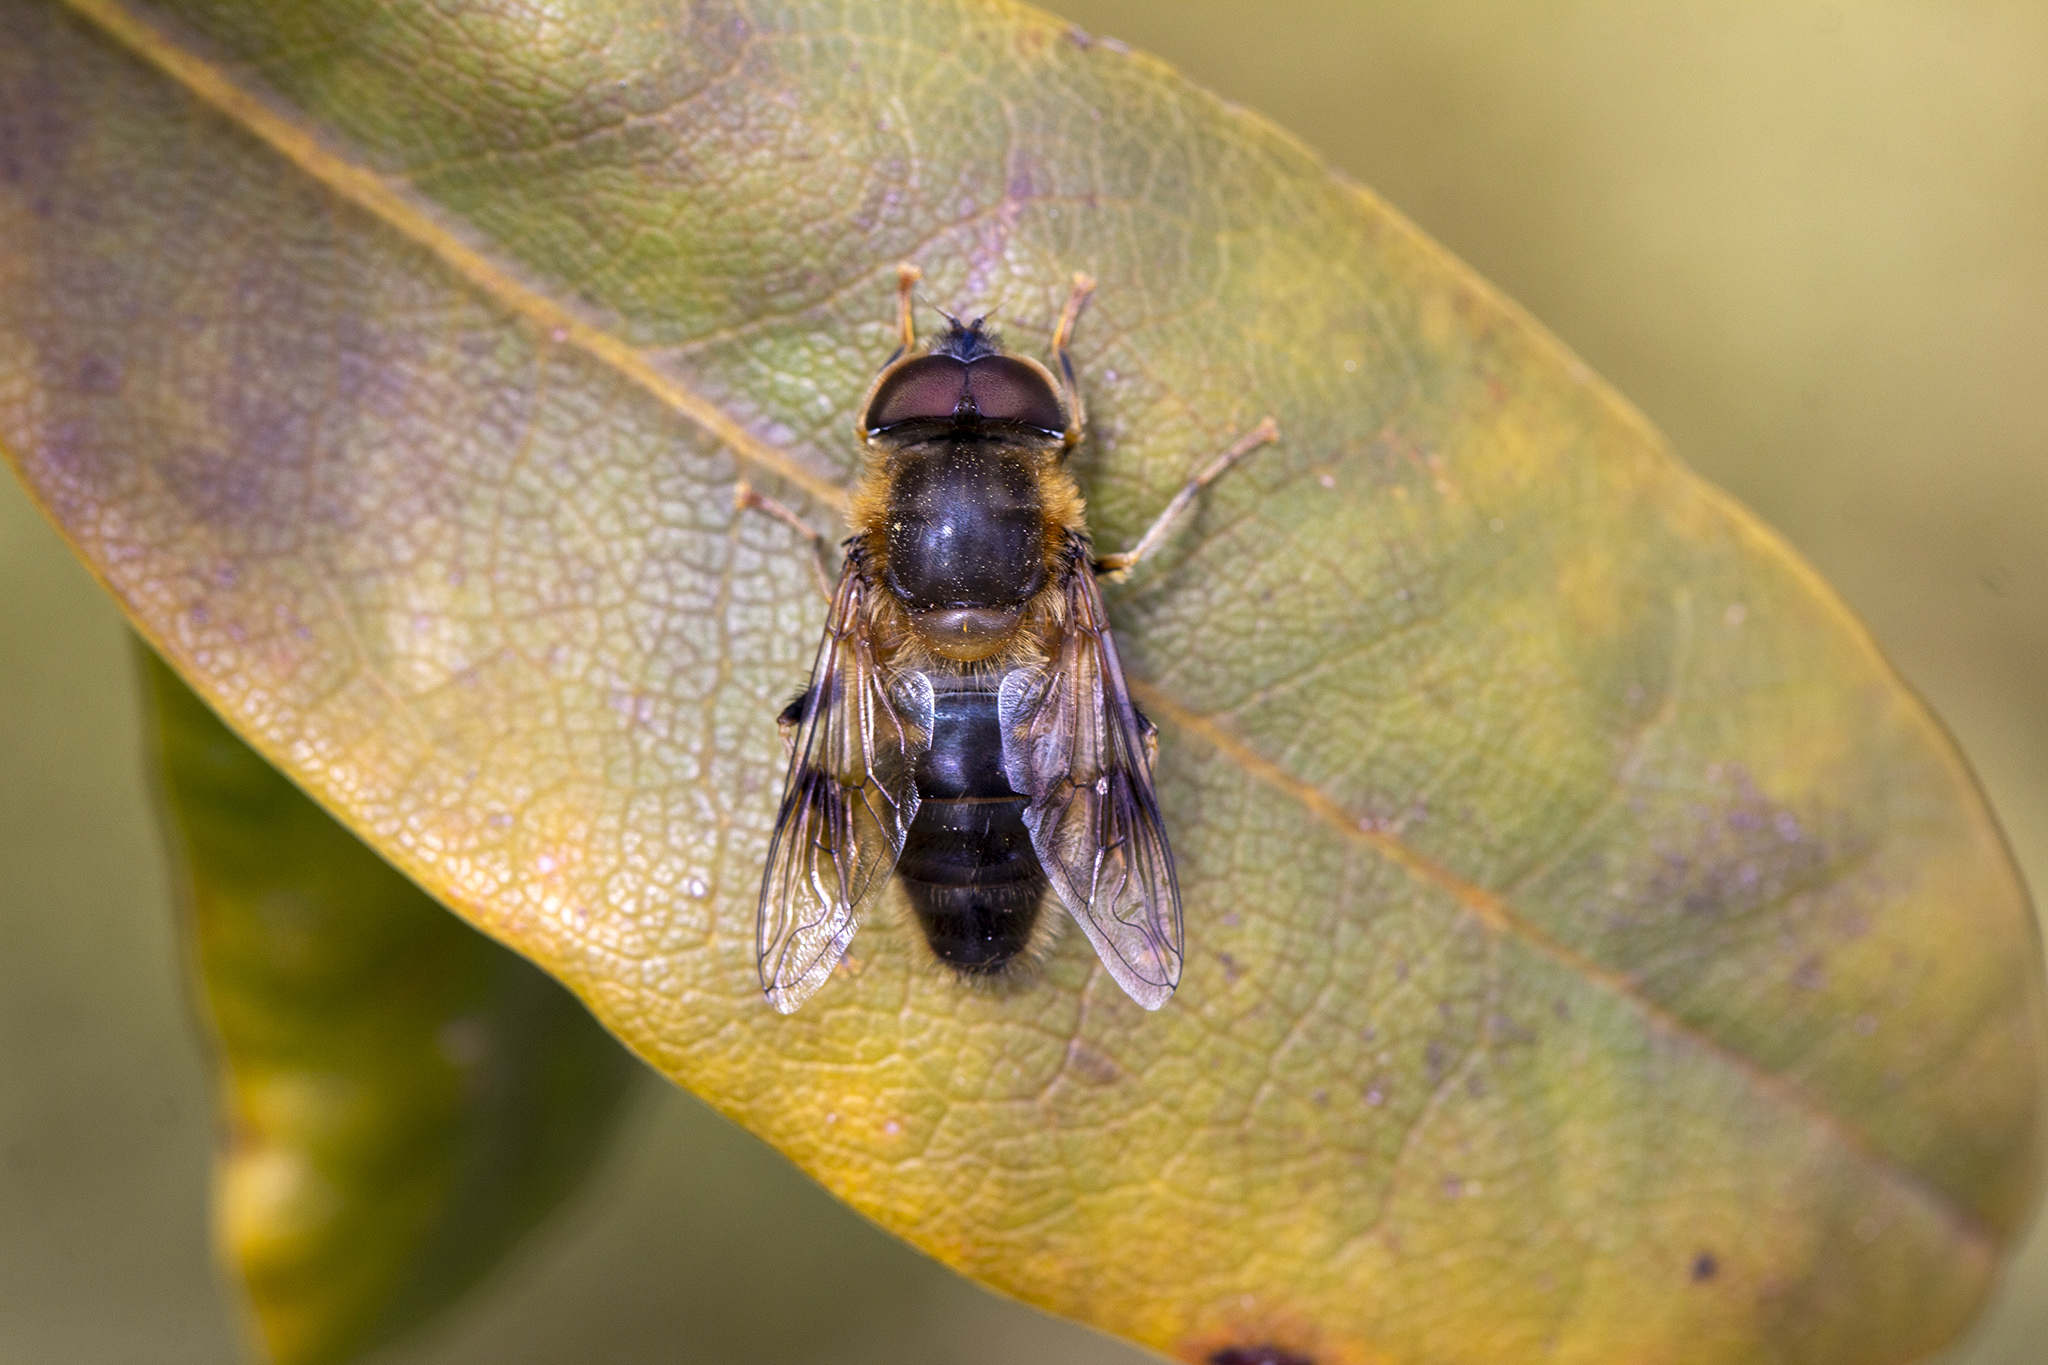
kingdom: Animalia
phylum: Arthropoda
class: Insecta
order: Diptera
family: Syrphidae
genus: Eristalis
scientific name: Eristalis pertinax
